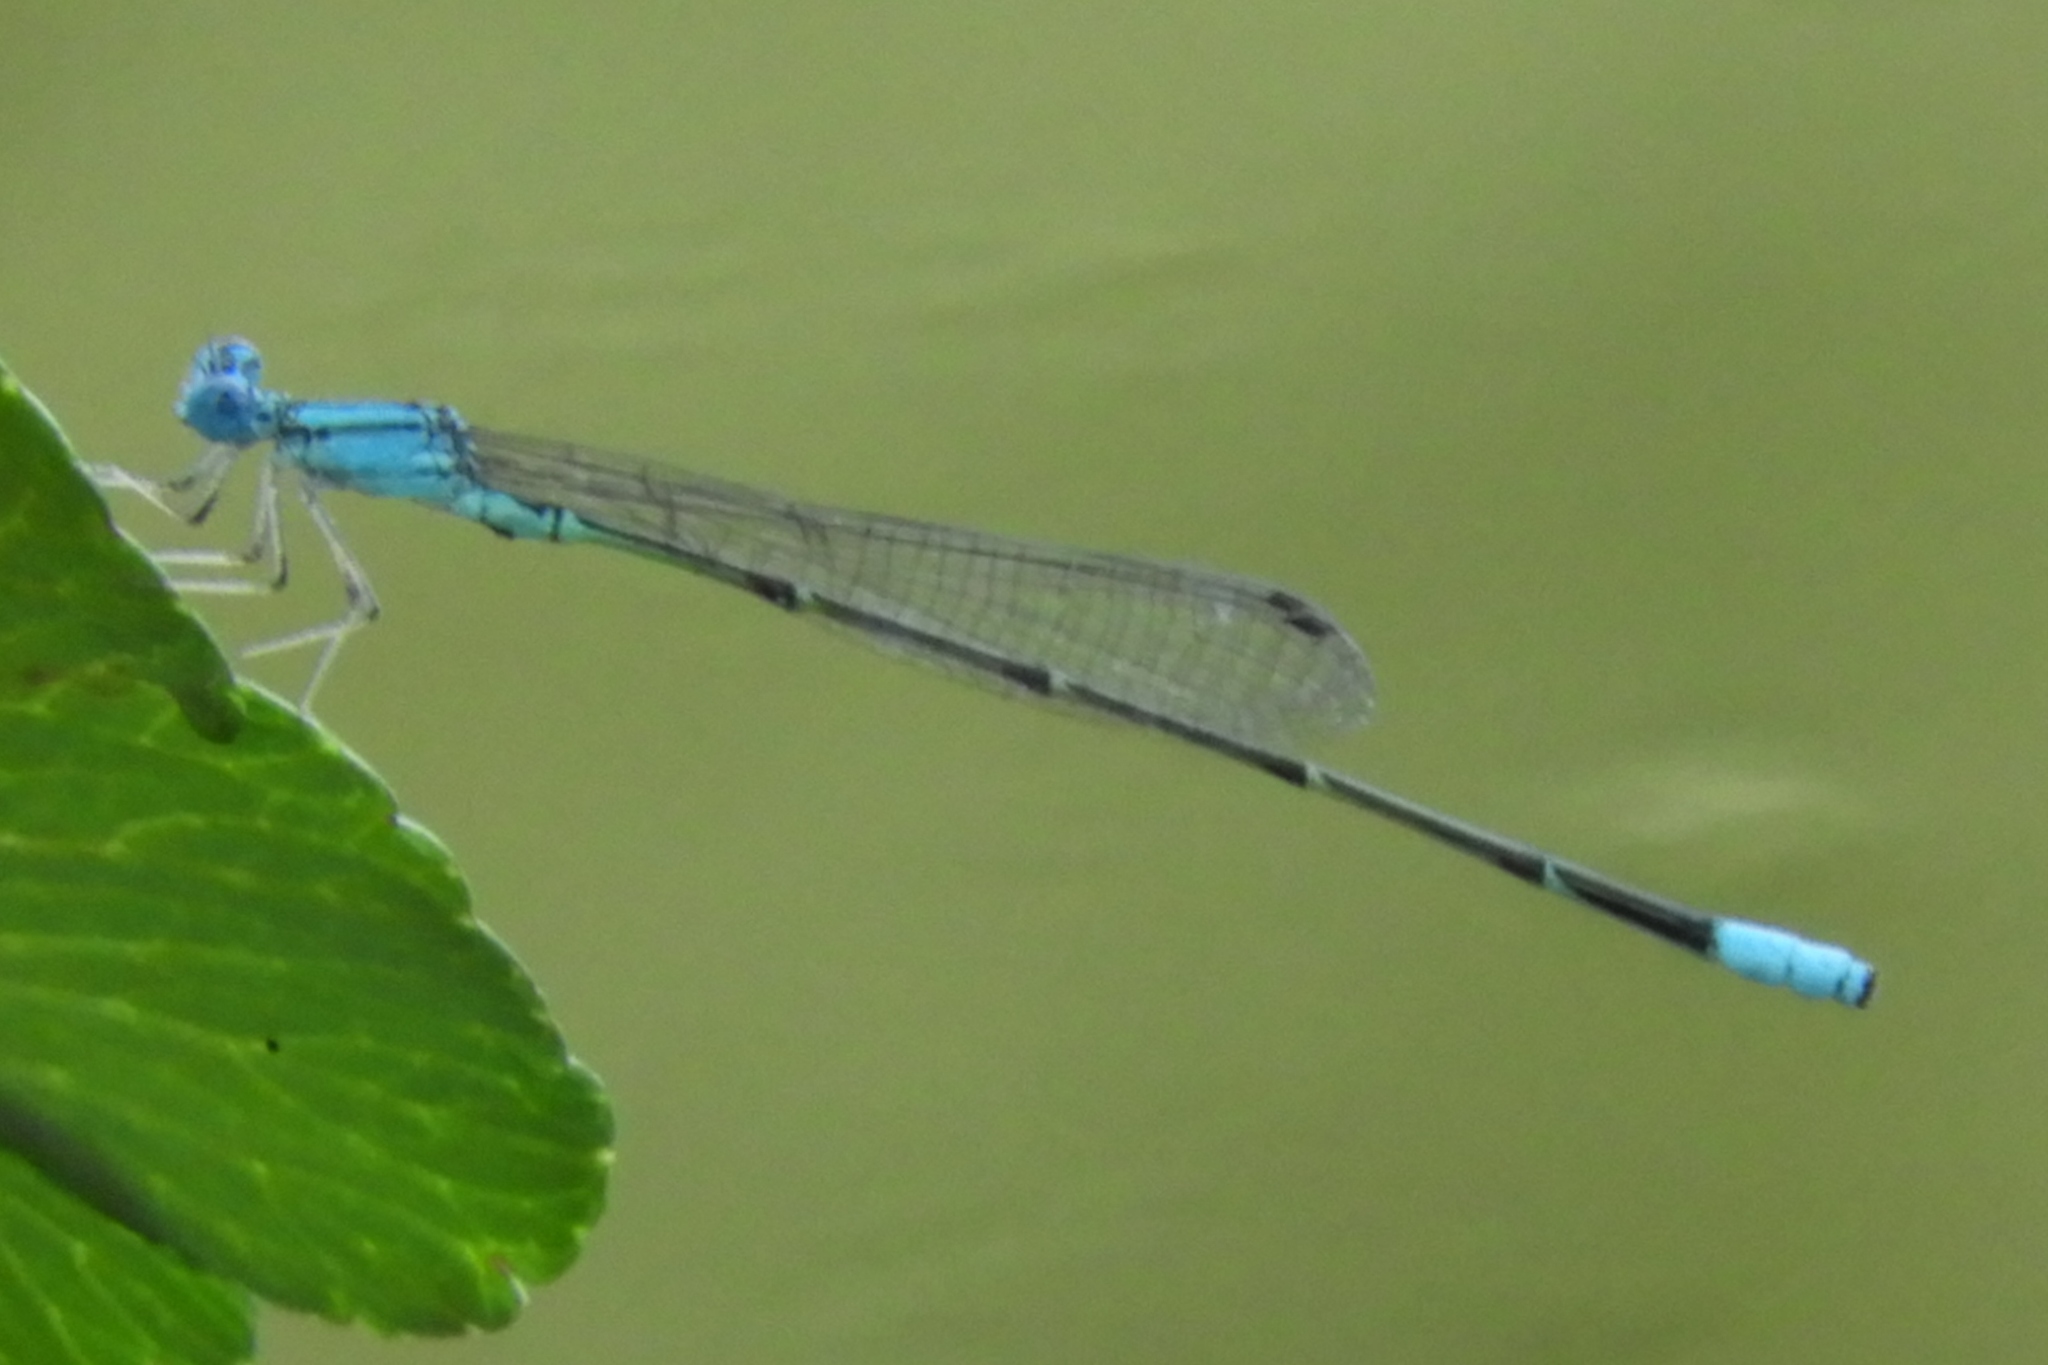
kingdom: Animalia
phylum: Arthropoda
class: Insecta
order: Odonata
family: Coenagrionidae
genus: Enallagma
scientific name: Enallagma pallidum
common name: Pale bluet
